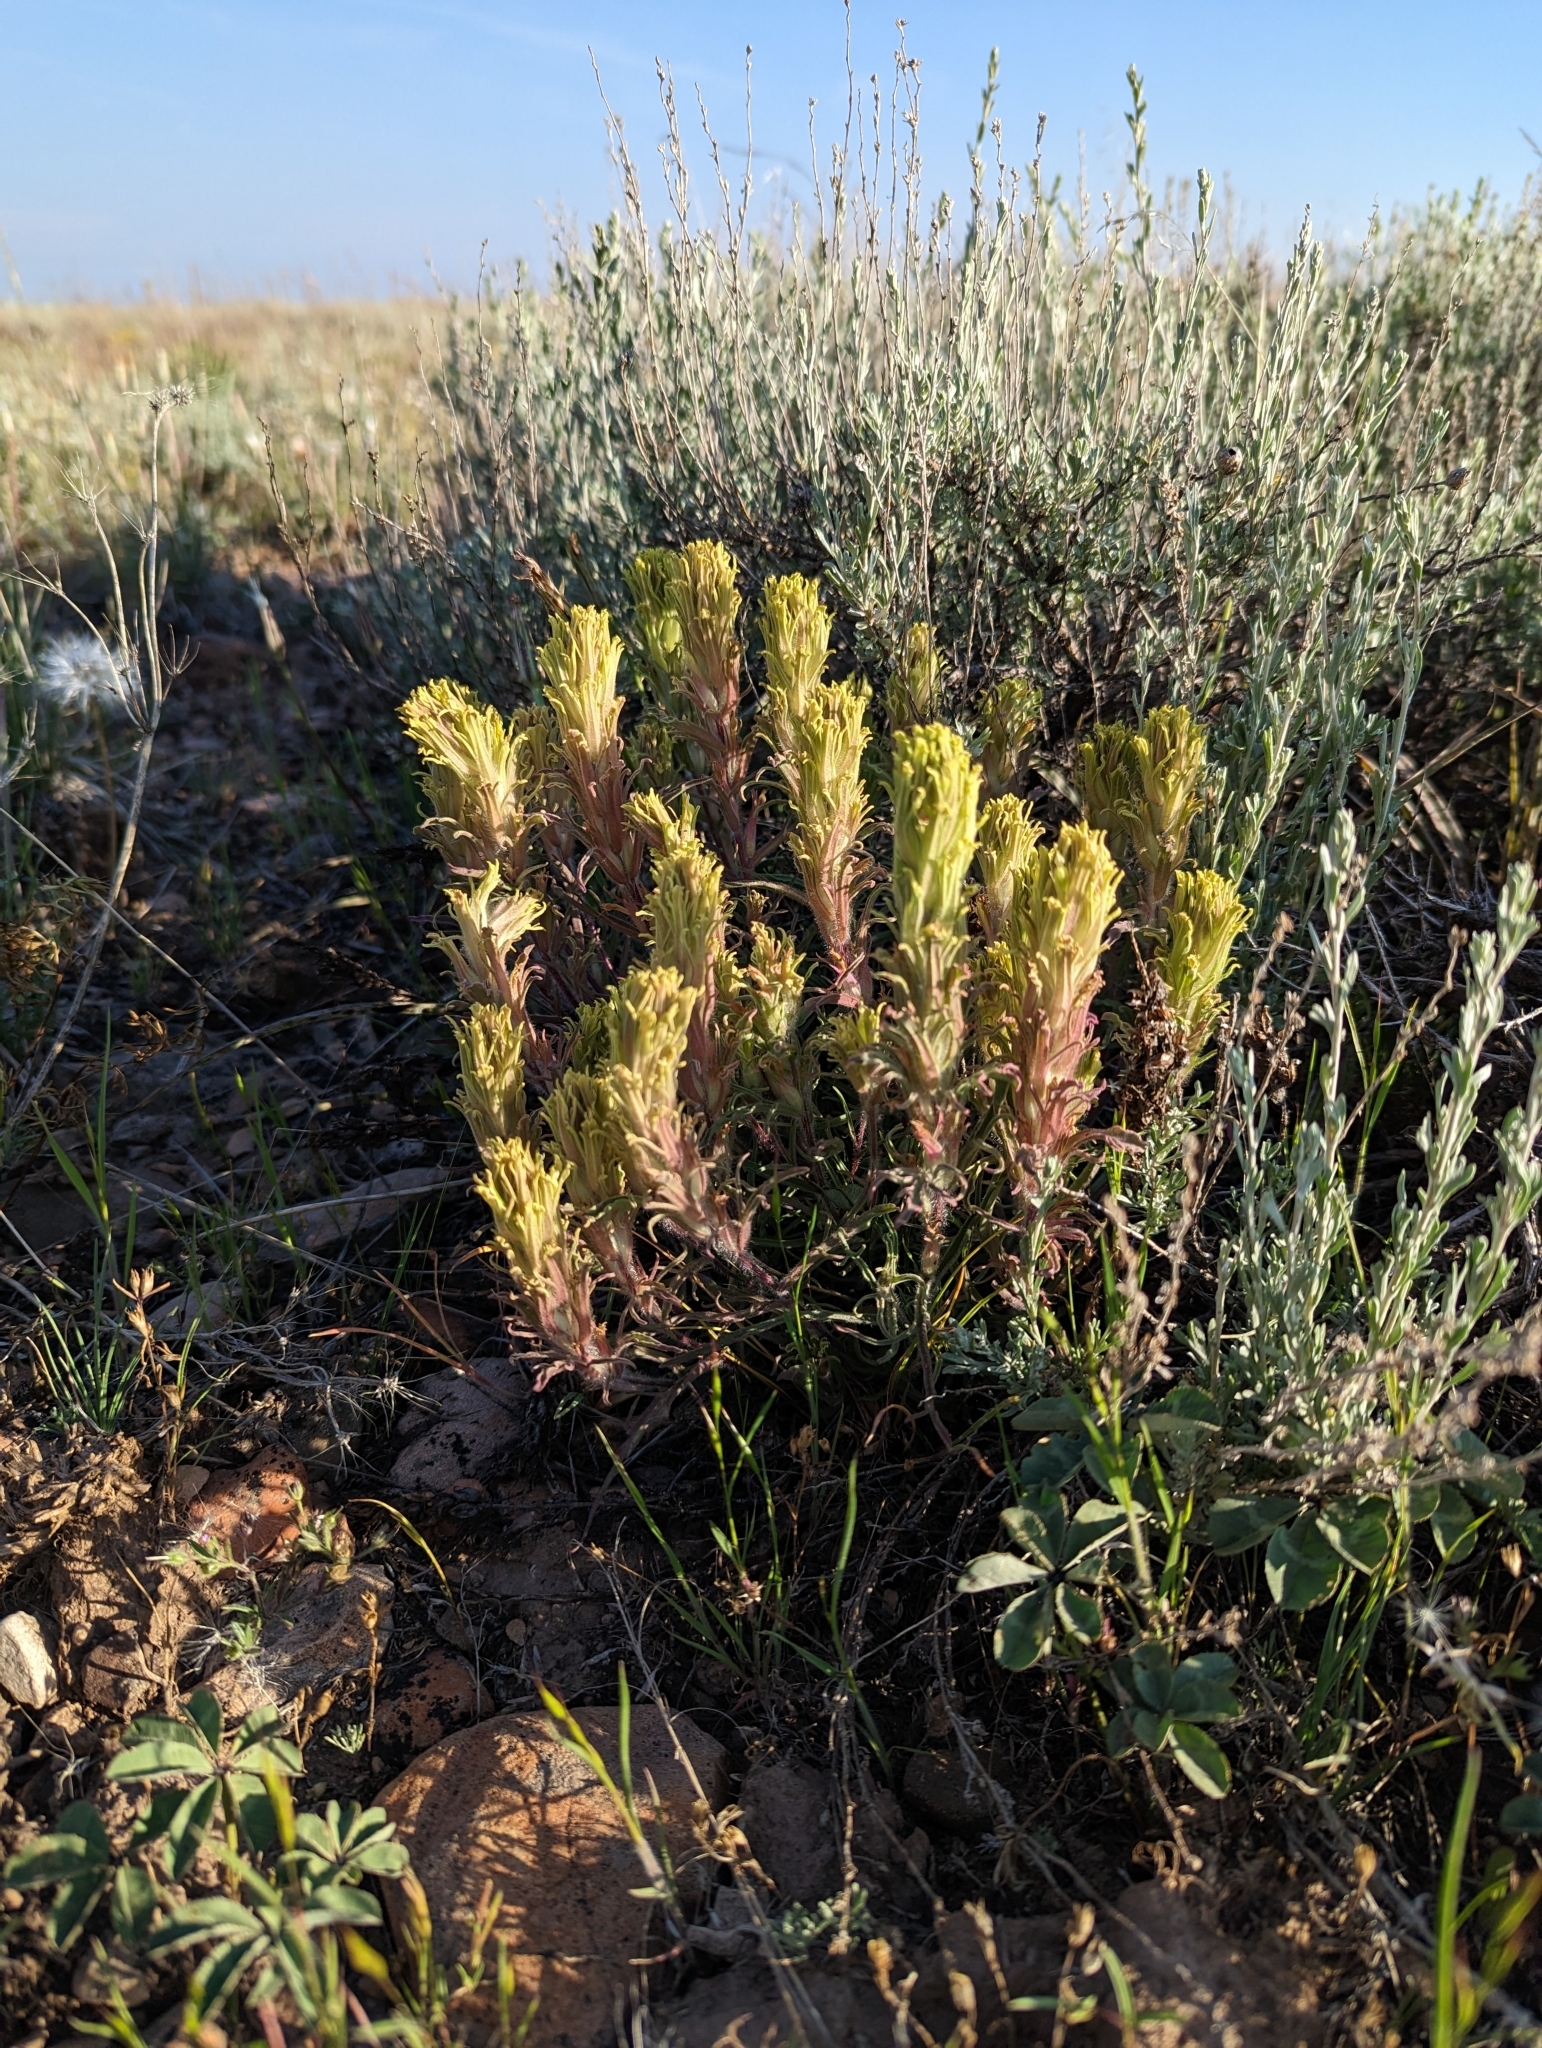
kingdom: Plantae
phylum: Tracheophyta
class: Magnoliopsida
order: Lamiales
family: Orobanchaceae
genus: Castilleja
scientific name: Castilleja pilosa
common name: Hairy paintbrush
